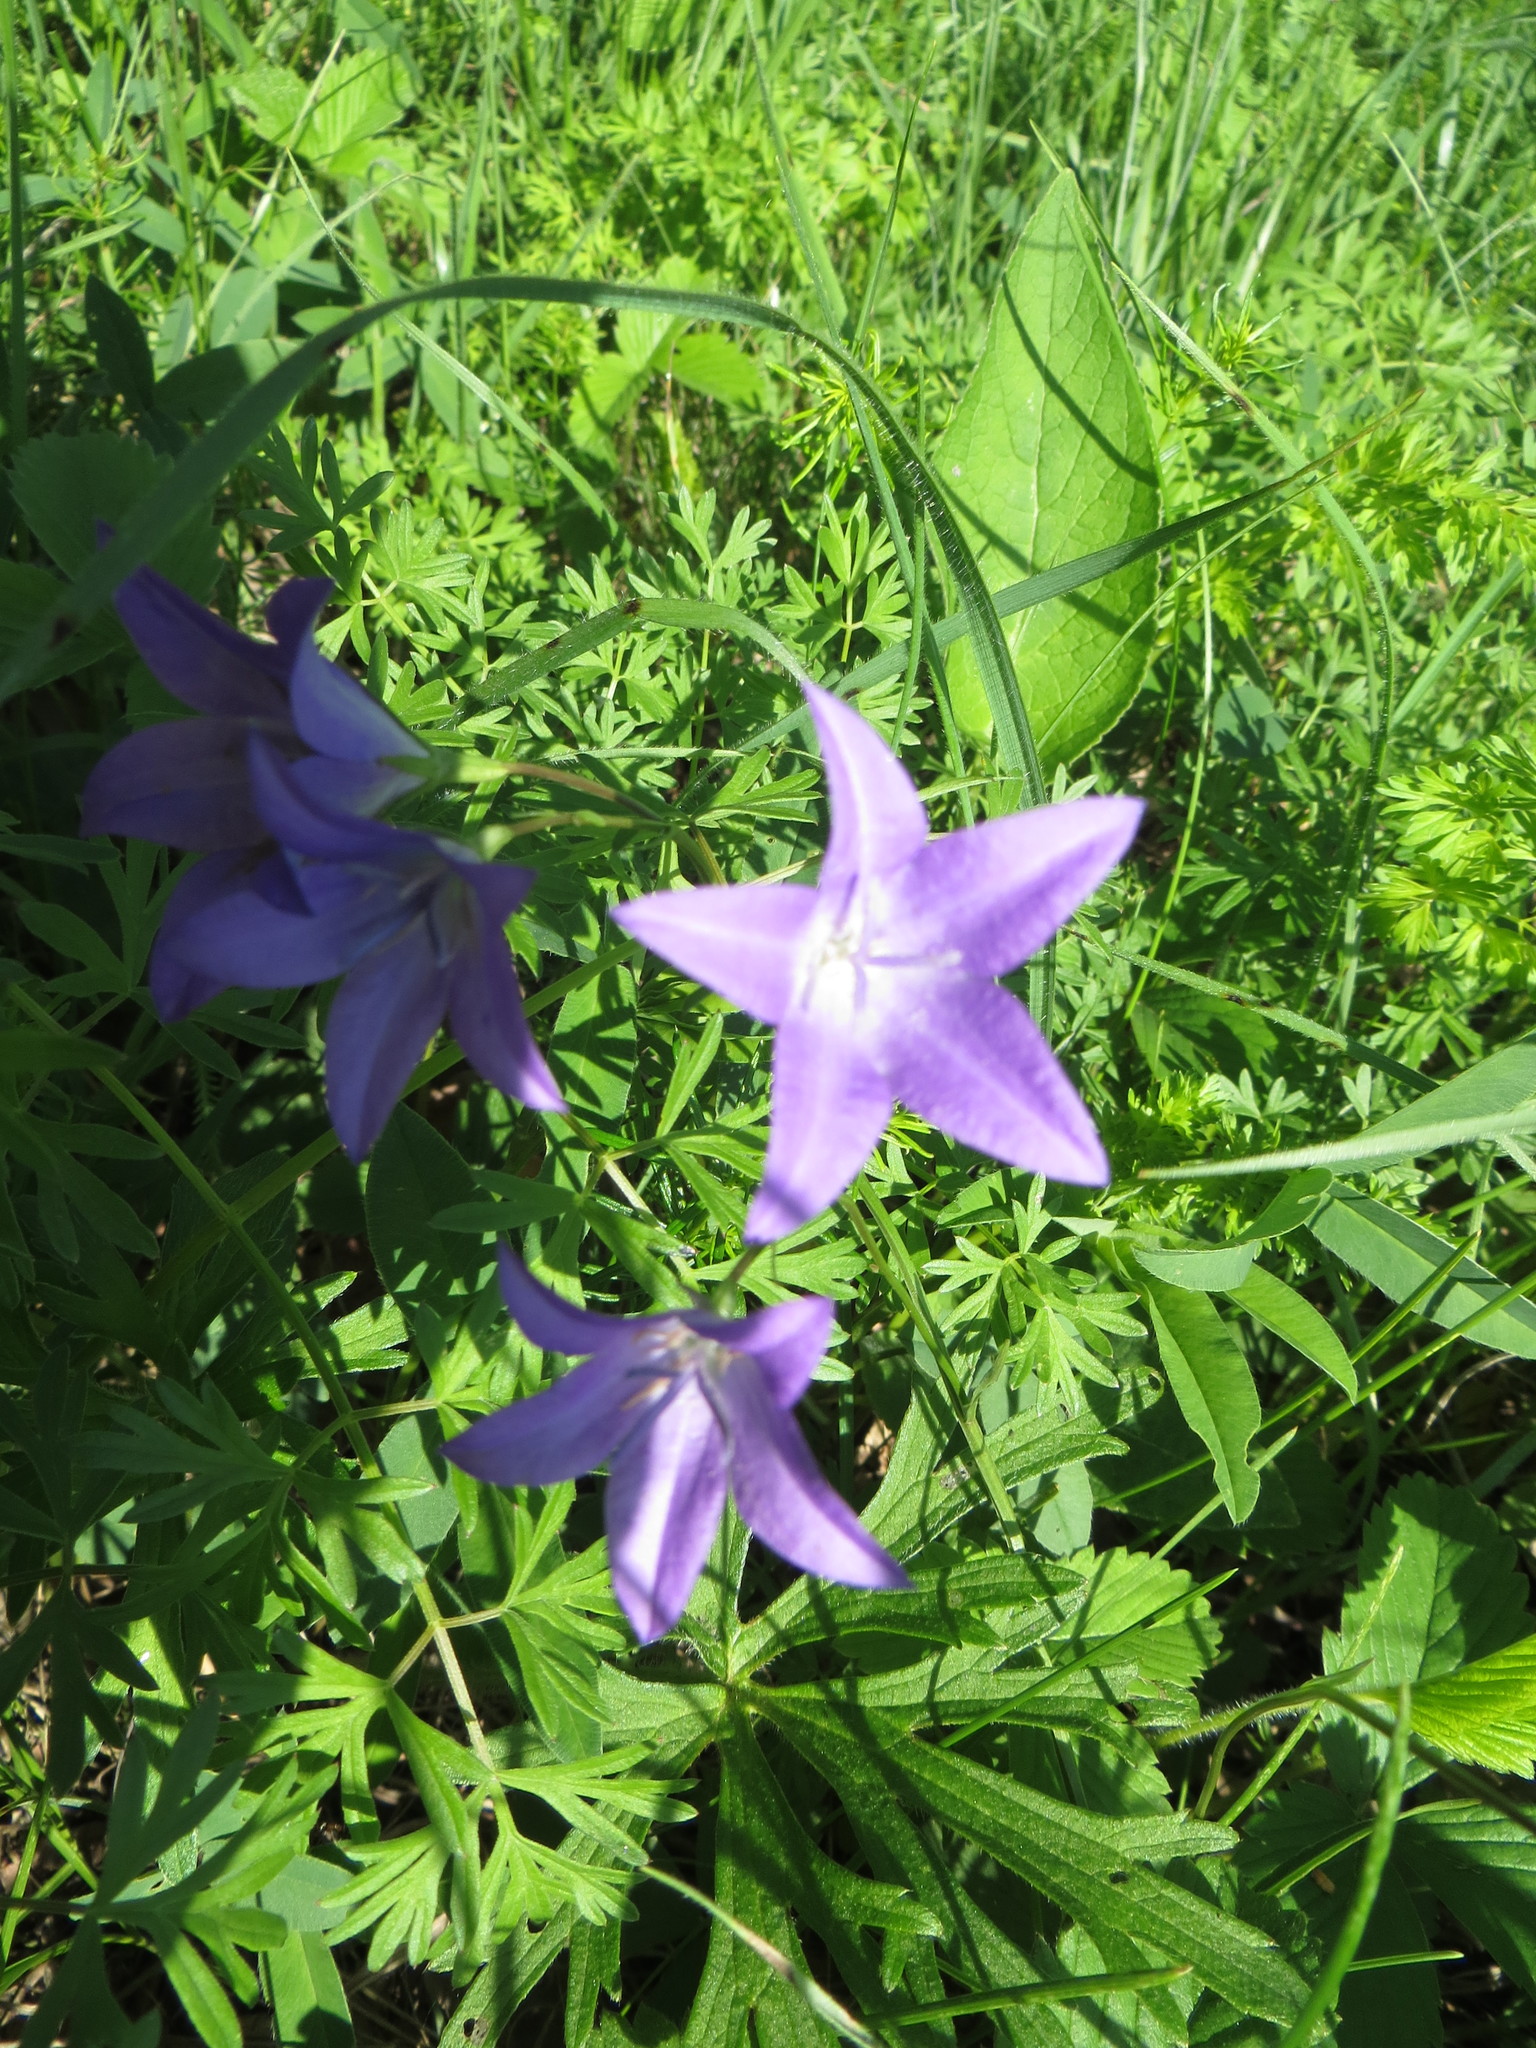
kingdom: Plantae
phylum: Tracheophyta
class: Magnoliopsida
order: Asterales
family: Campanulaceae
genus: Campanula
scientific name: Campanula stevenii
